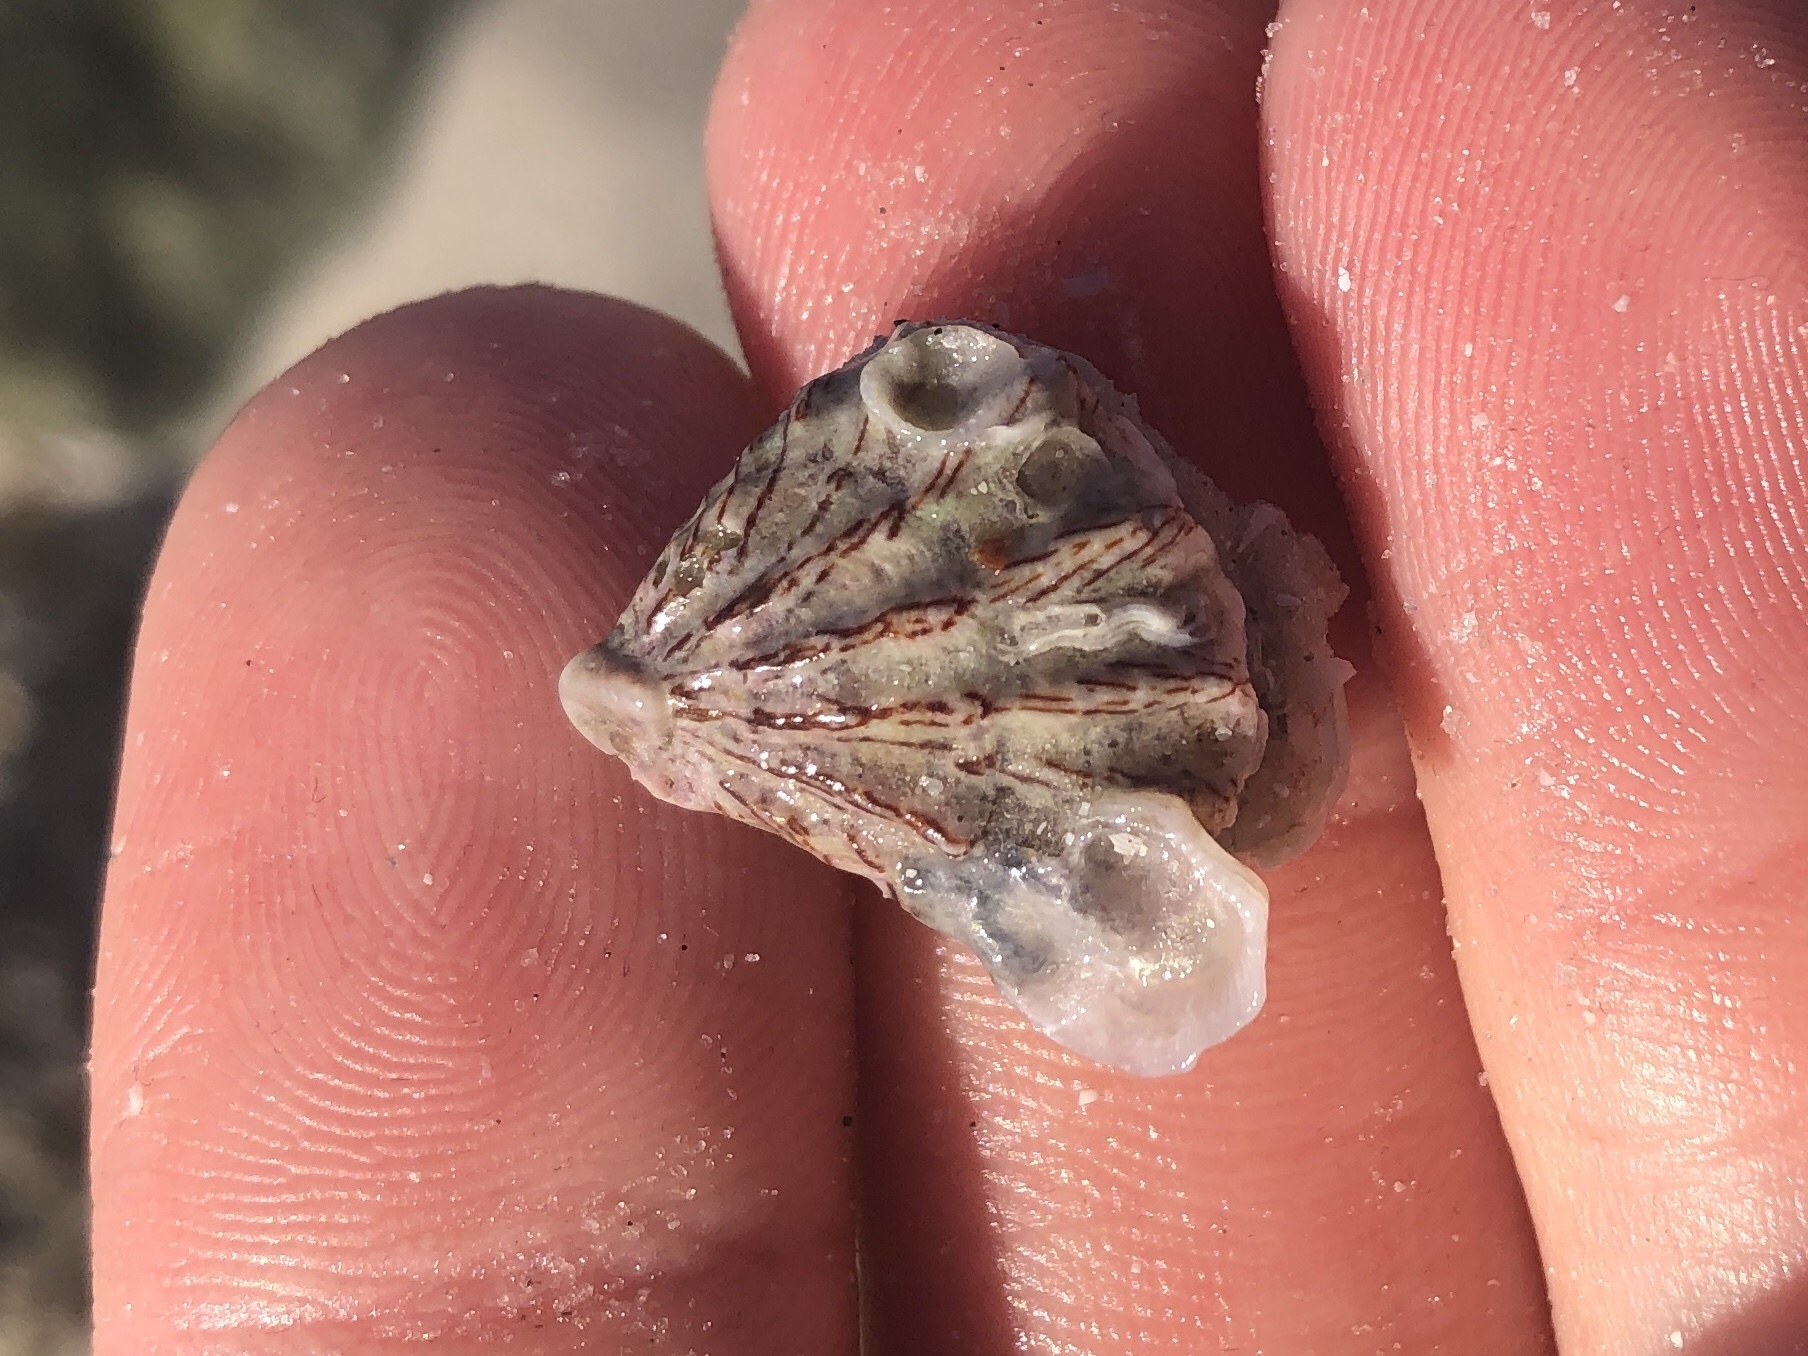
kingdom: Animalia
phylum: Mollusca
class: Bivalvia
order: Pectinida
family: Plicatulidae
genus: Plicatula
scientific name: Plicatula gibbosa
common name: Atlantic kitten's paw
